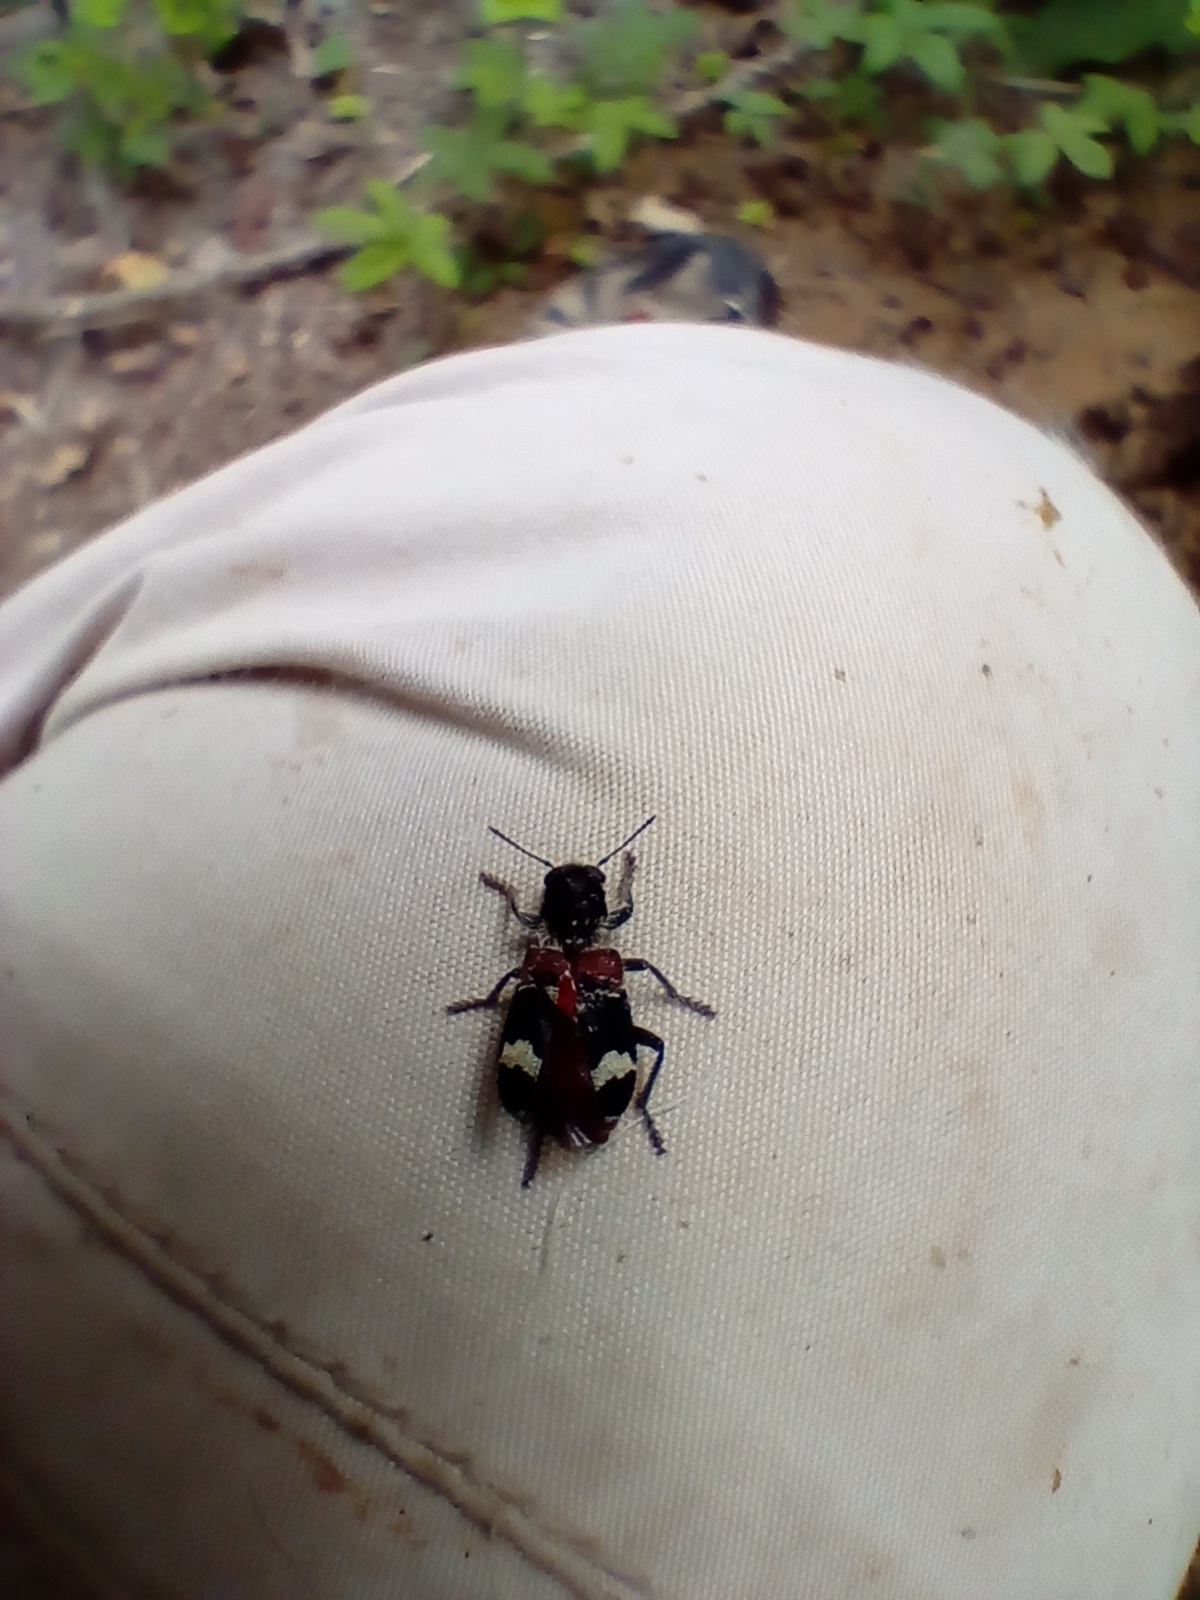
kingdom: Animalia
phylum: Arthropoda
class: Insecta
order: Coleoptera
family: Cleridae
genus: Clerus
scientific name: Clerus mutillarius
